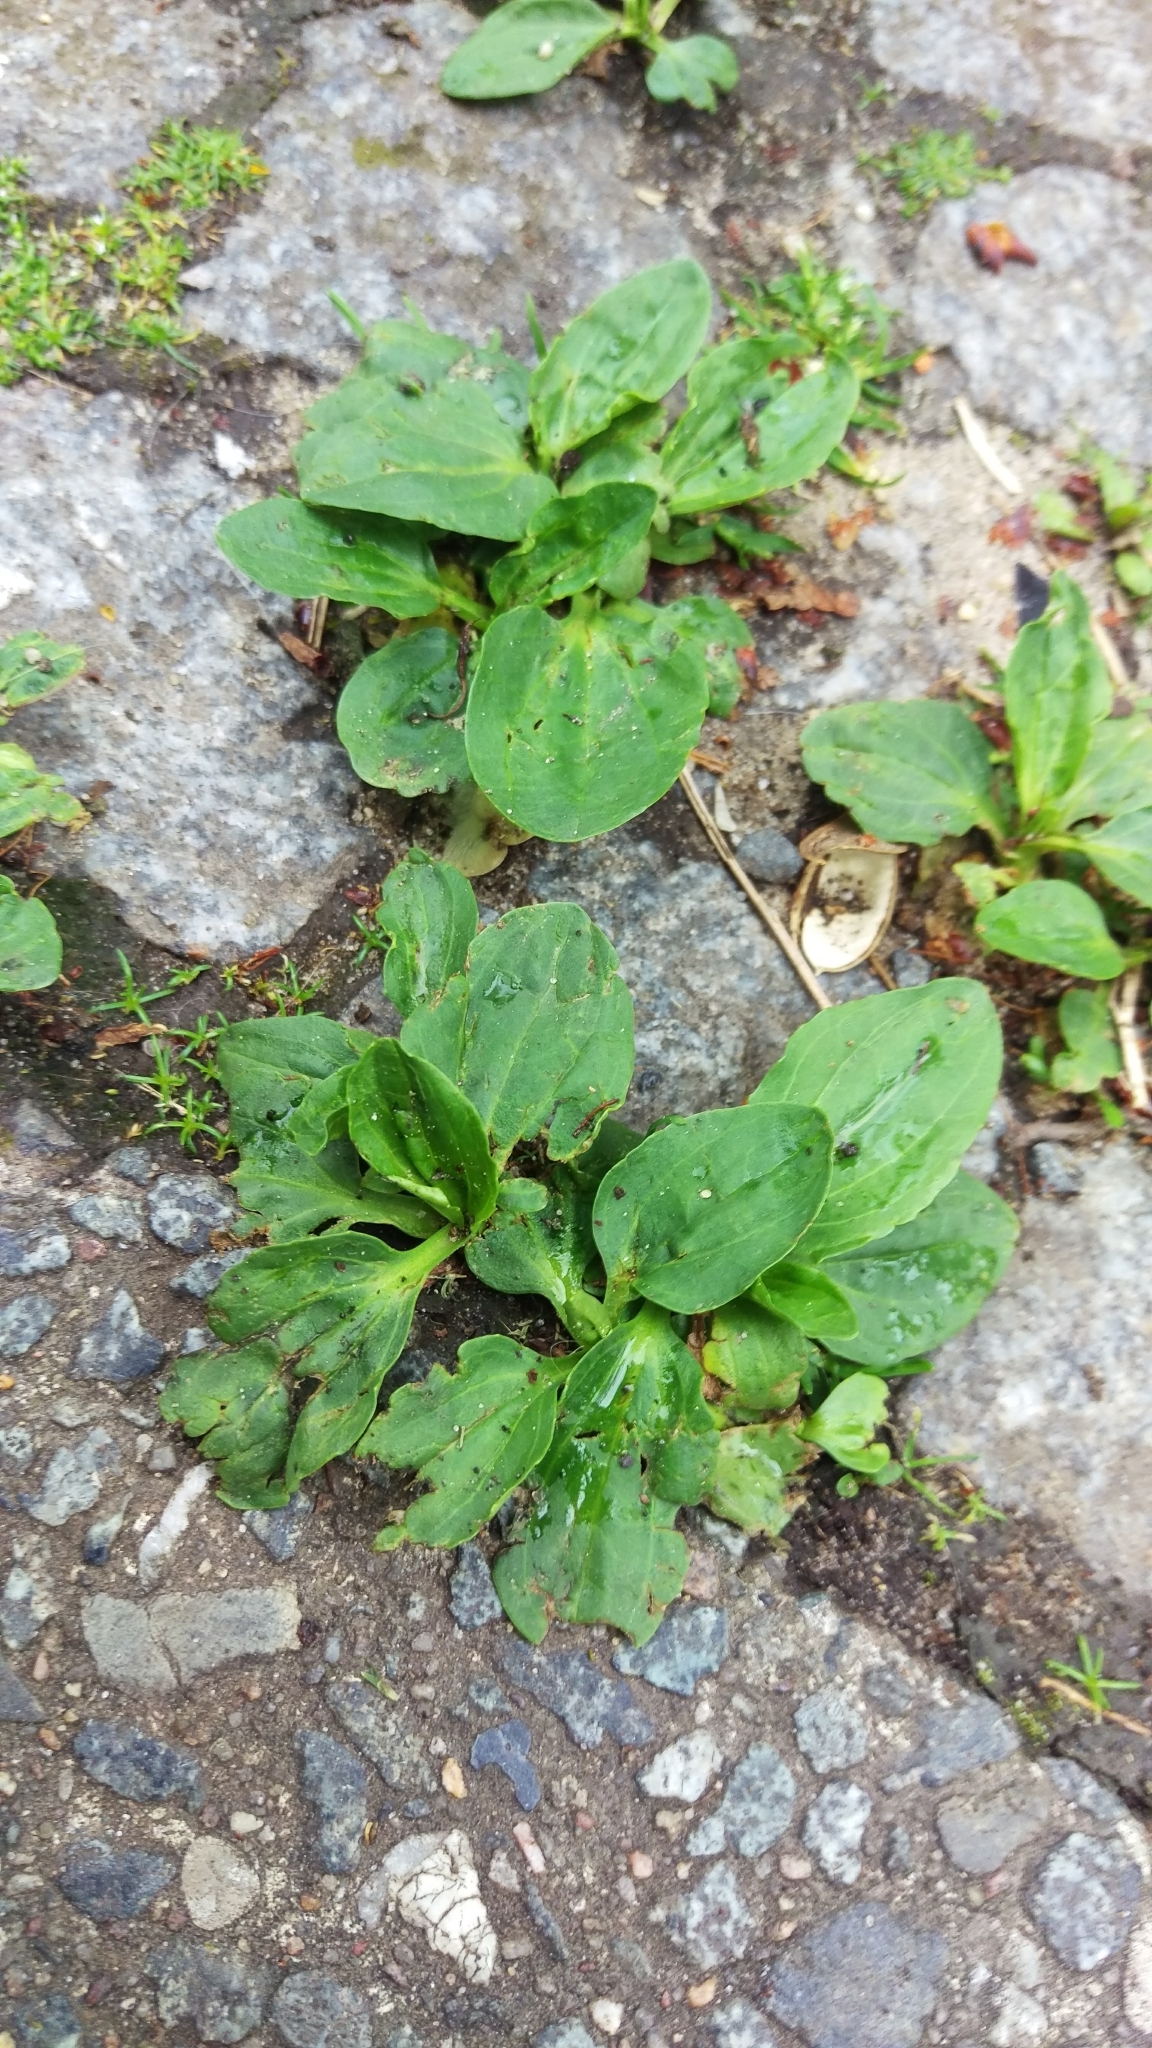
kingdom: Plantae
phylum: Tracheophyta
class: Magnoliopsida
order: Lamiales
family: Plantaginaceae
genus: Plantago
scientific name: Plantago major
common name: Common plantain
